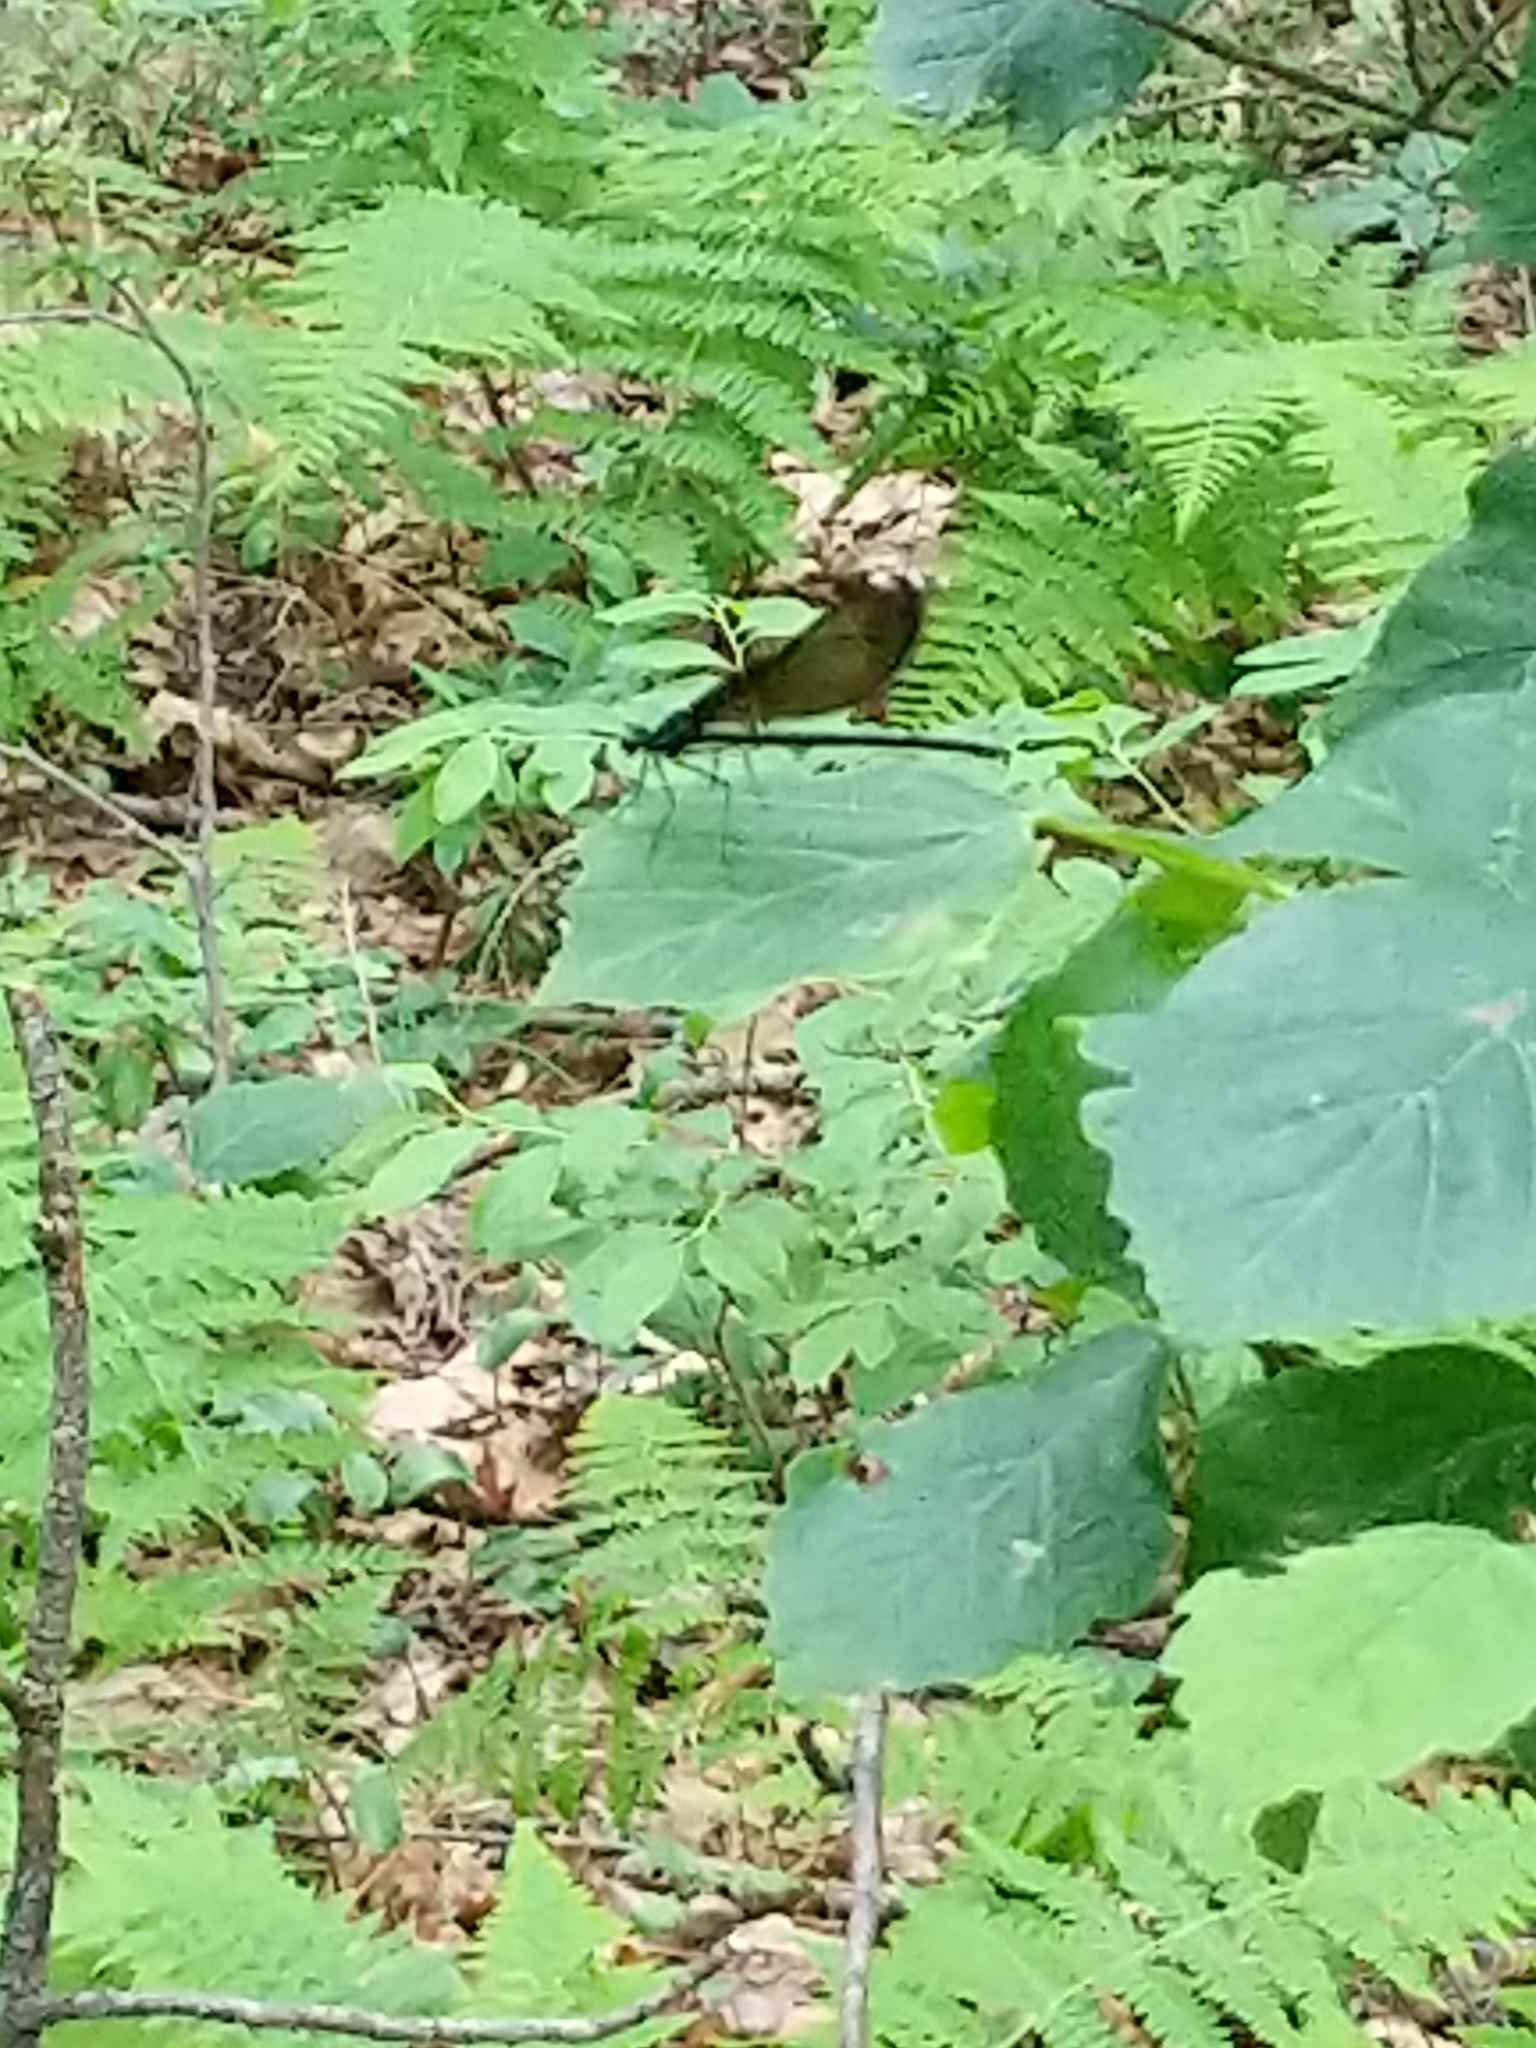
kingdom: Animalia
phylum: Arthropoda
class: Insecta
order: Odonata
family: Calopterygidae
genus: Calopteryx
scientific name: Calopteryx maculata
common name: Ebony jewelwing
